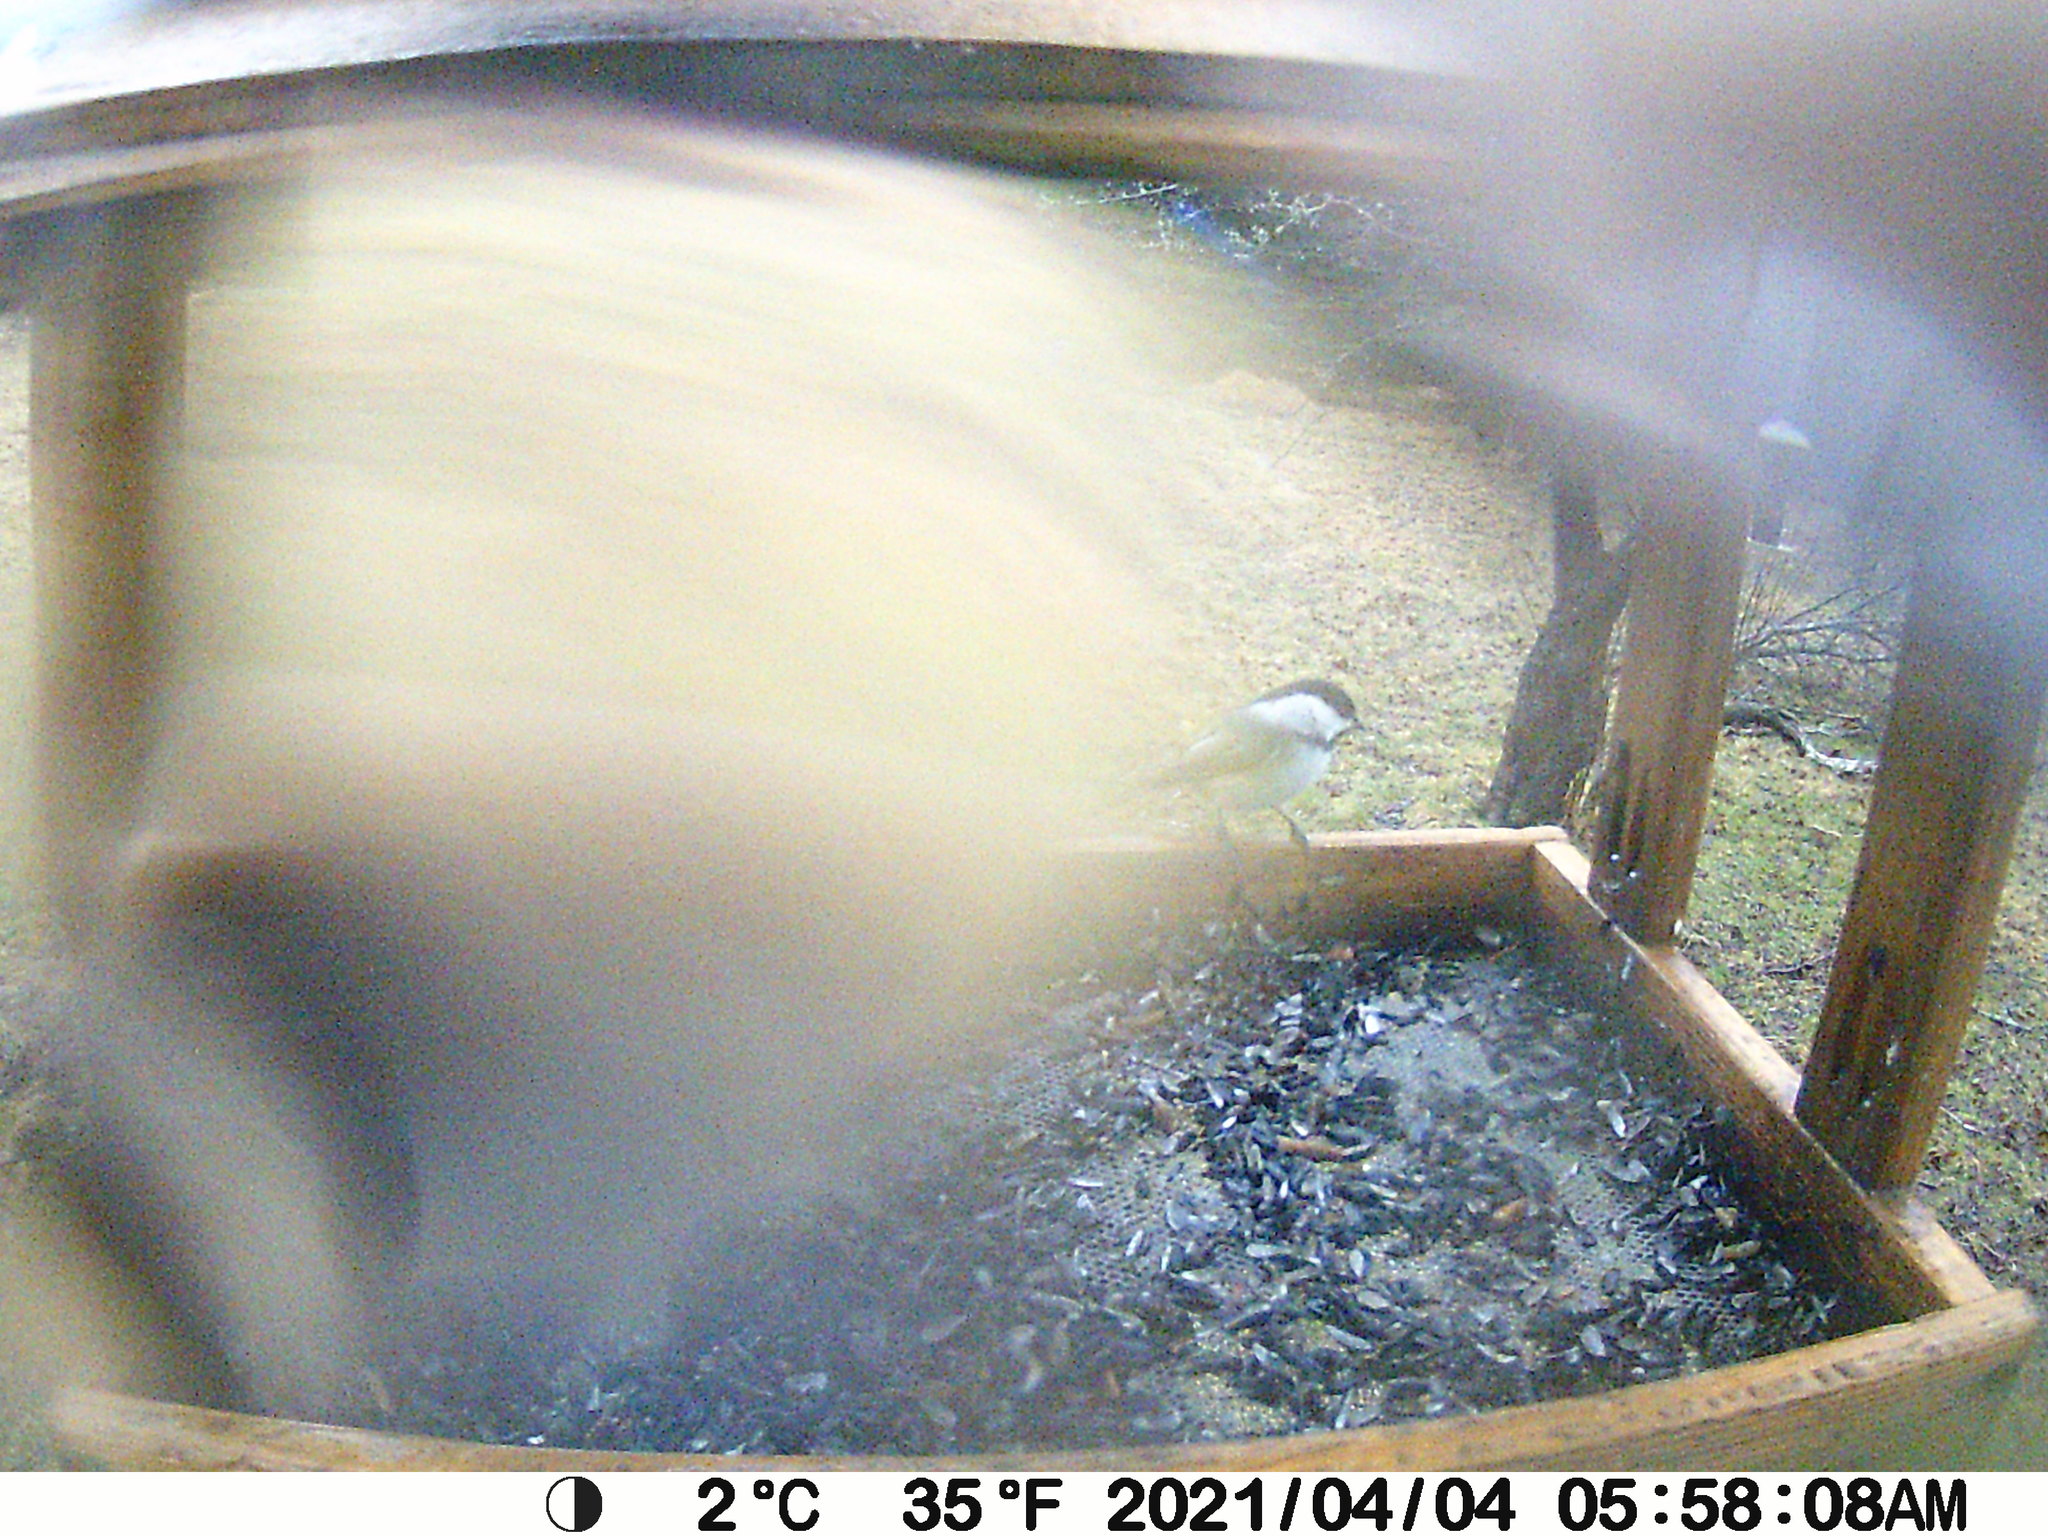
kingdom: Animalia
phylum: Chordata
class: Aves
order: Passeriformes
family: Paridae
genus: Poecile
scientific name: Poecile atricapillus
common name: Black-capped chickadee
